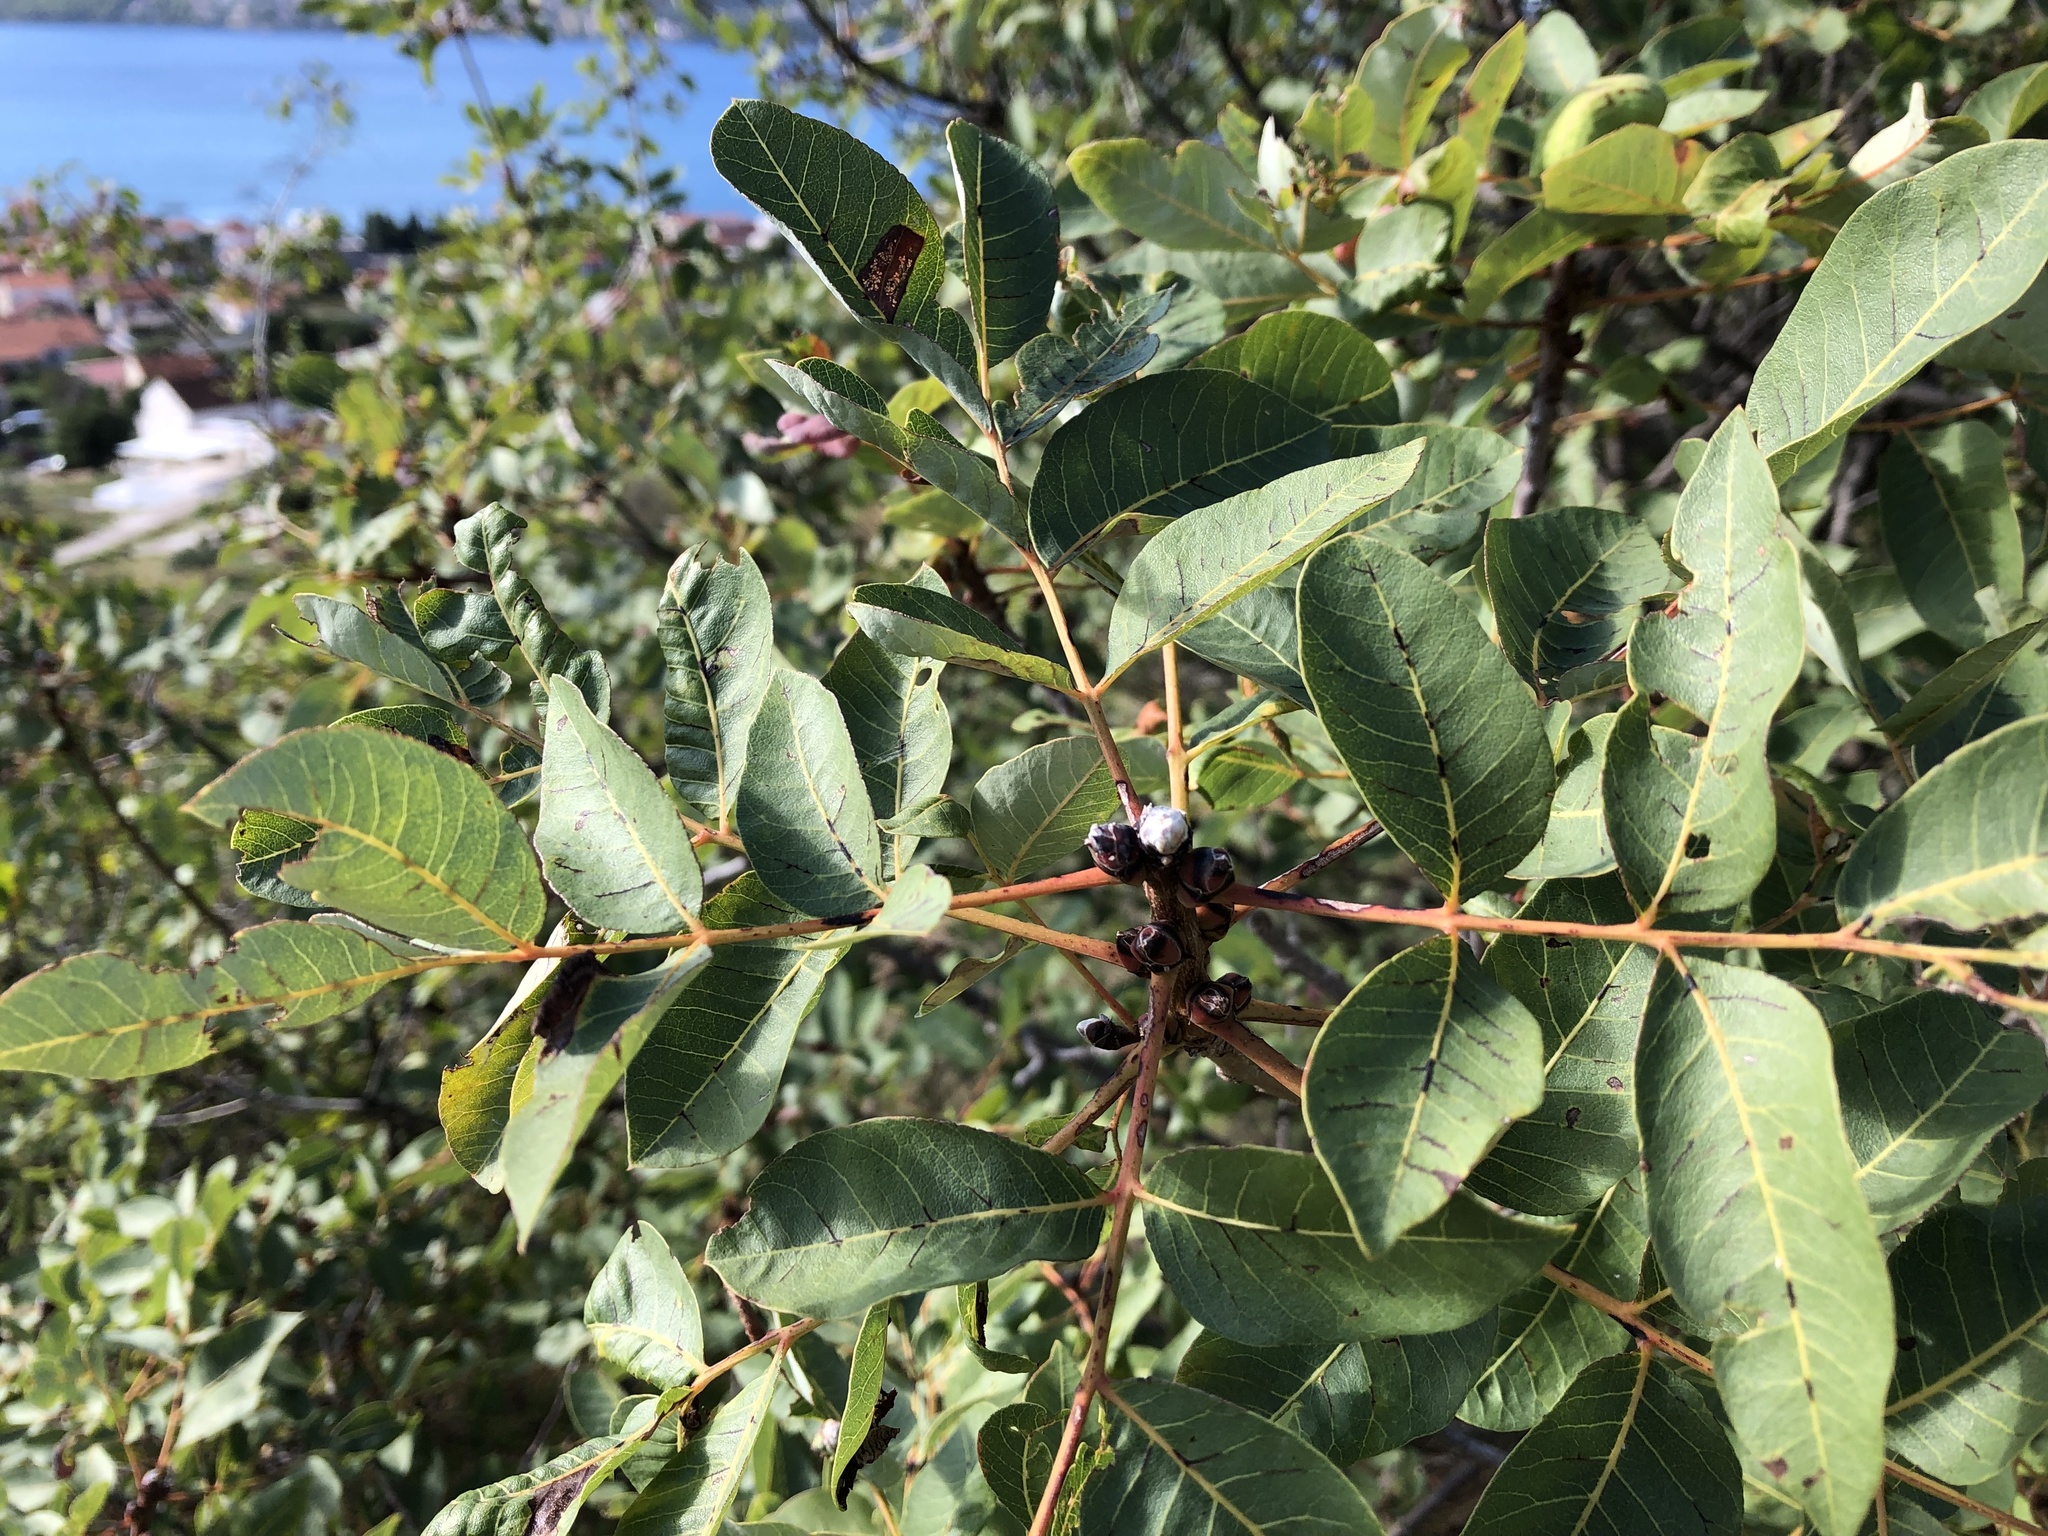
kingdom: Plantae
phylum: Tracheophyta
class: Magnoliopsida
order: Sapindales
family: Anacardiaceae
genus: Pistacia
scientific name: Pistacia terebinthus
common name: Terebinth
